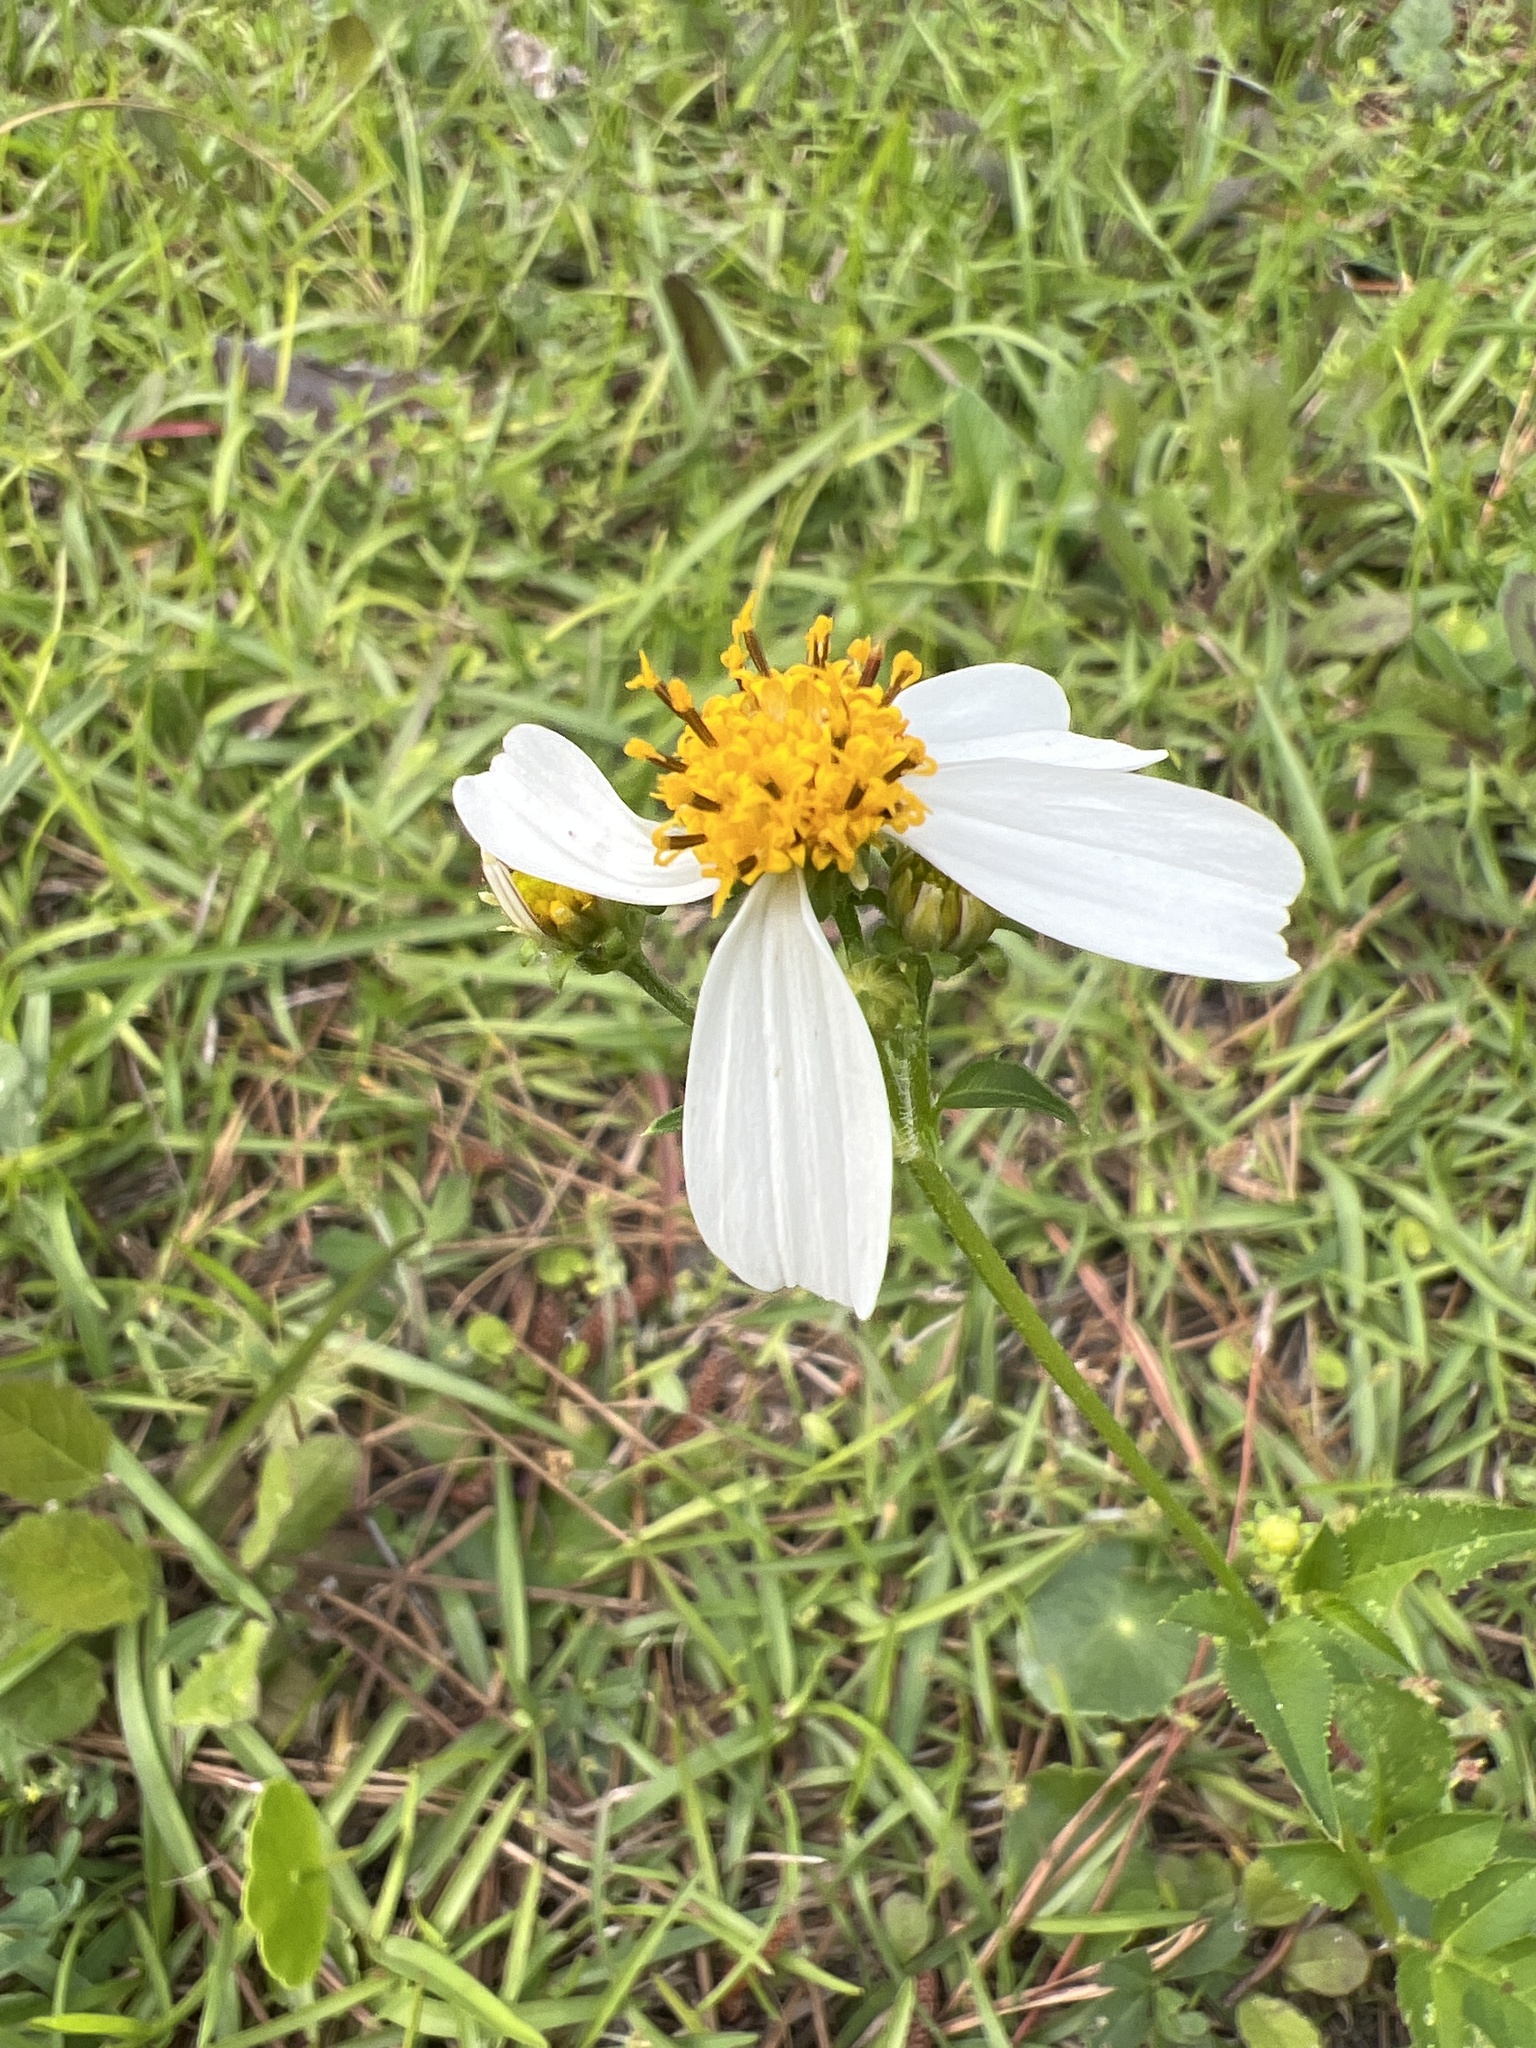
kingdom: Plantae
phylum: Tracheophyta
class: Magnoliopsida
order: Asterales
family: Asteraceae
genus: Bidens
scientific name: Bidens alba
